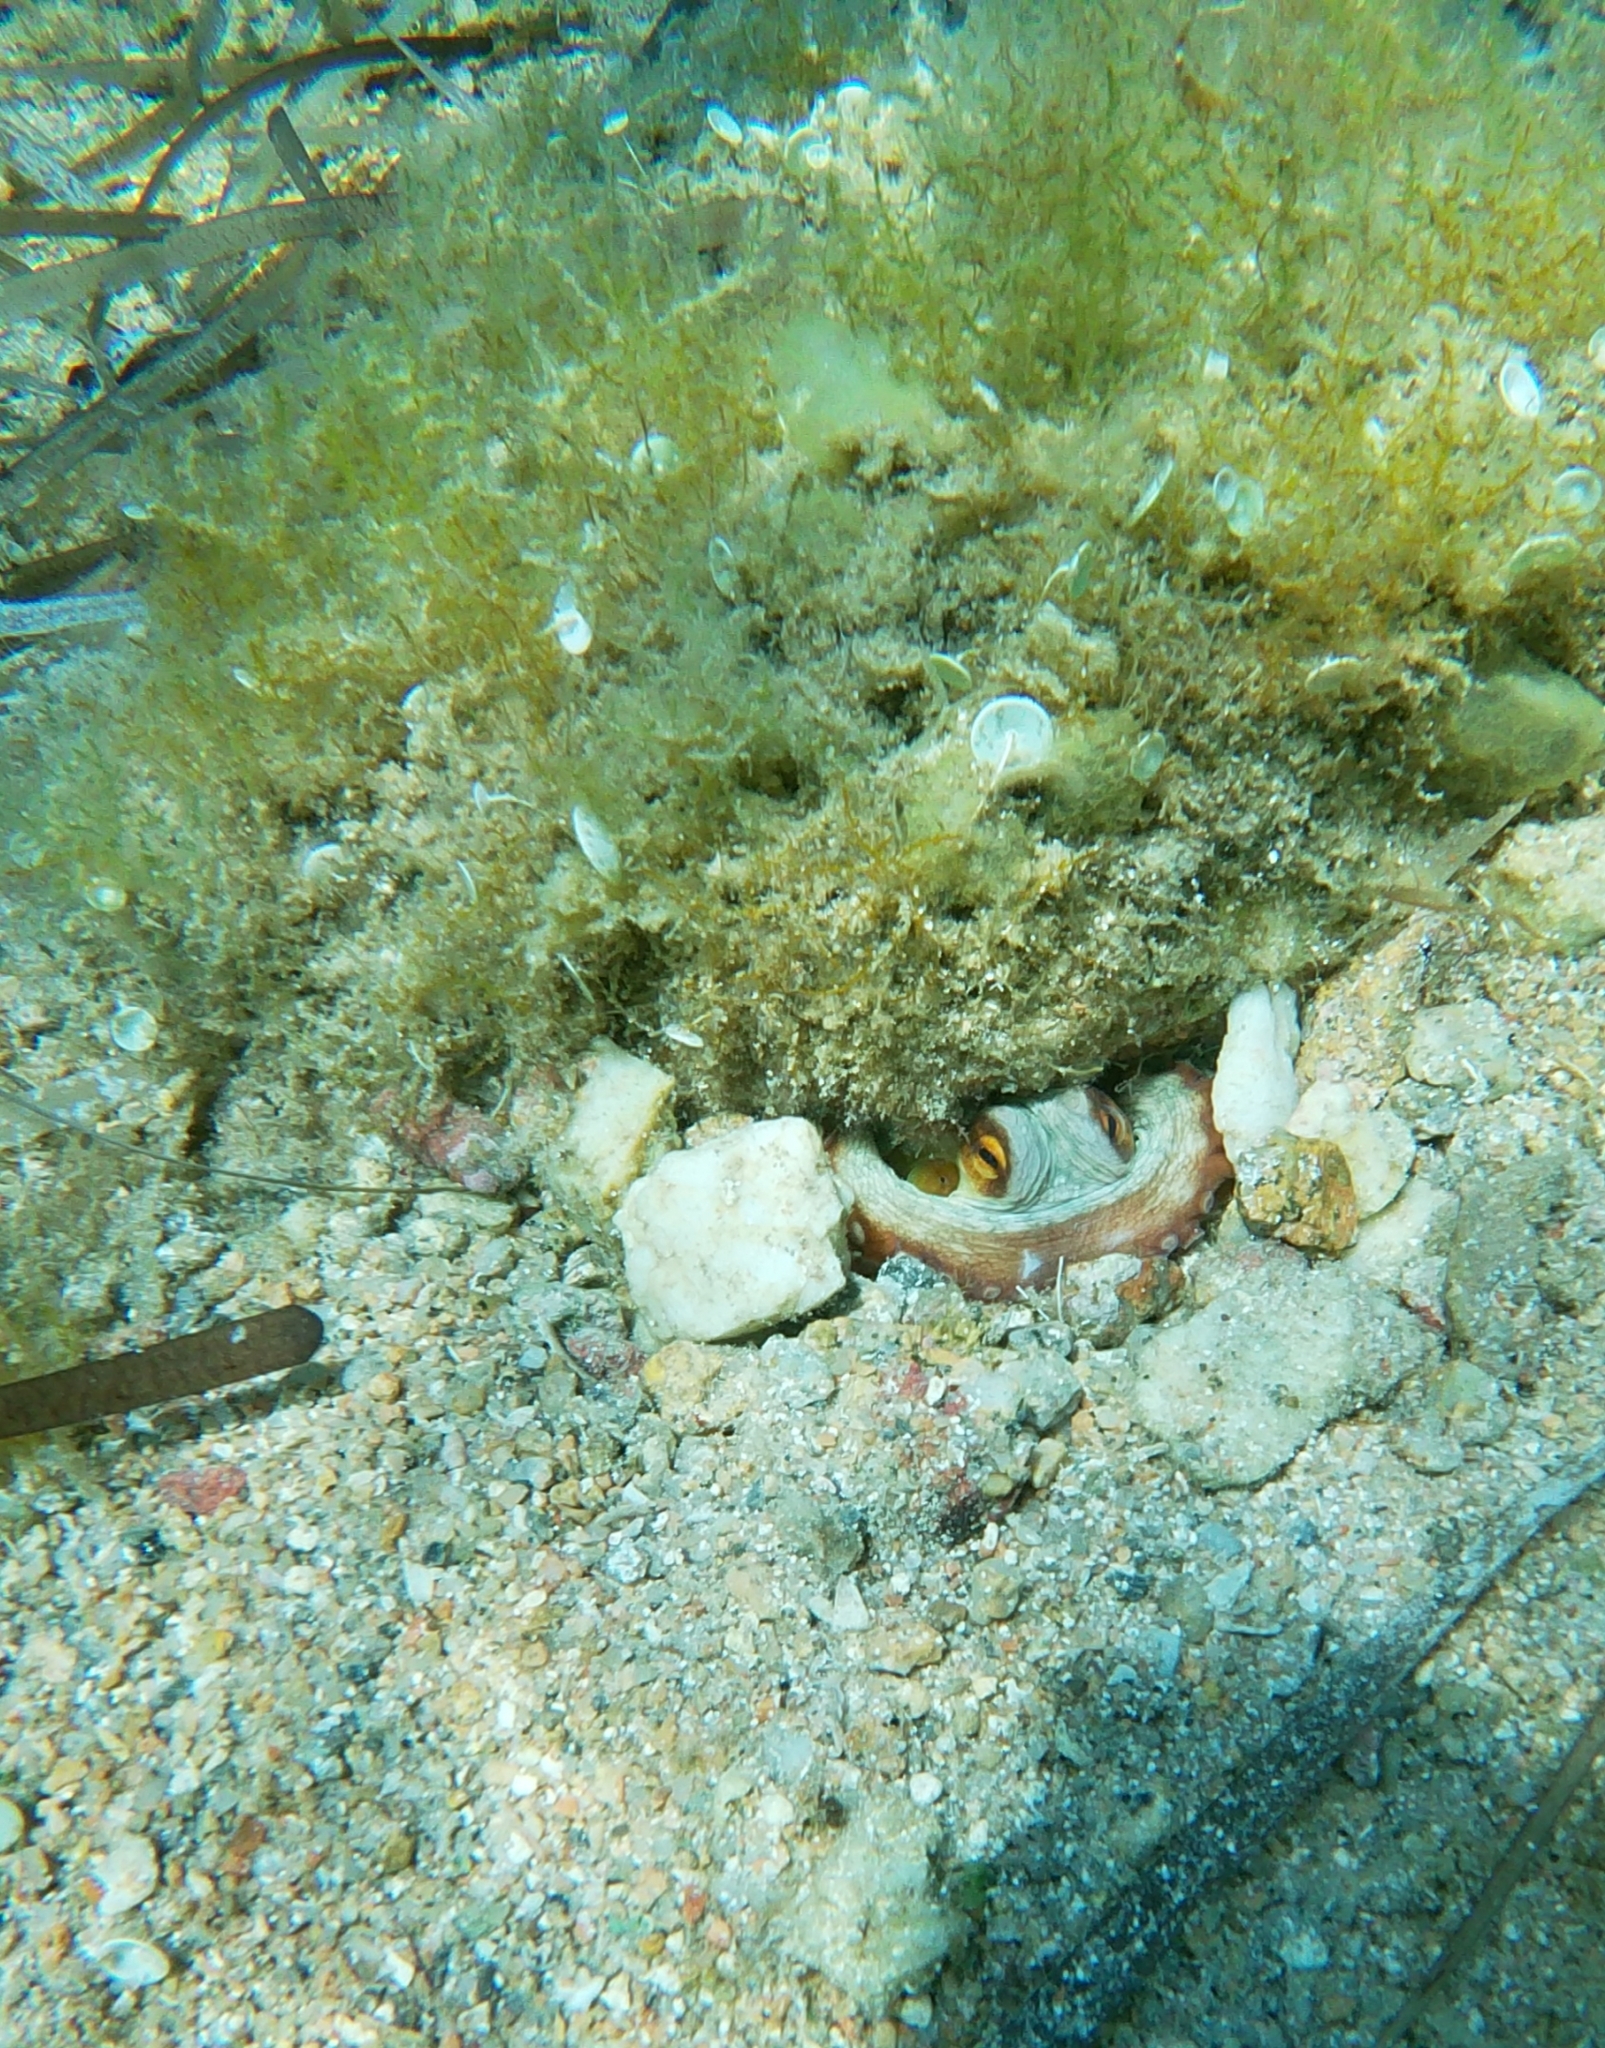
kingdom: Animalia
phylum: Mollusca
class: Cephalopoda
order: Octopoda
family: Octopodidae
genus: Octopus
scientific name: Octopus vulgaris
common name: Common octopus
